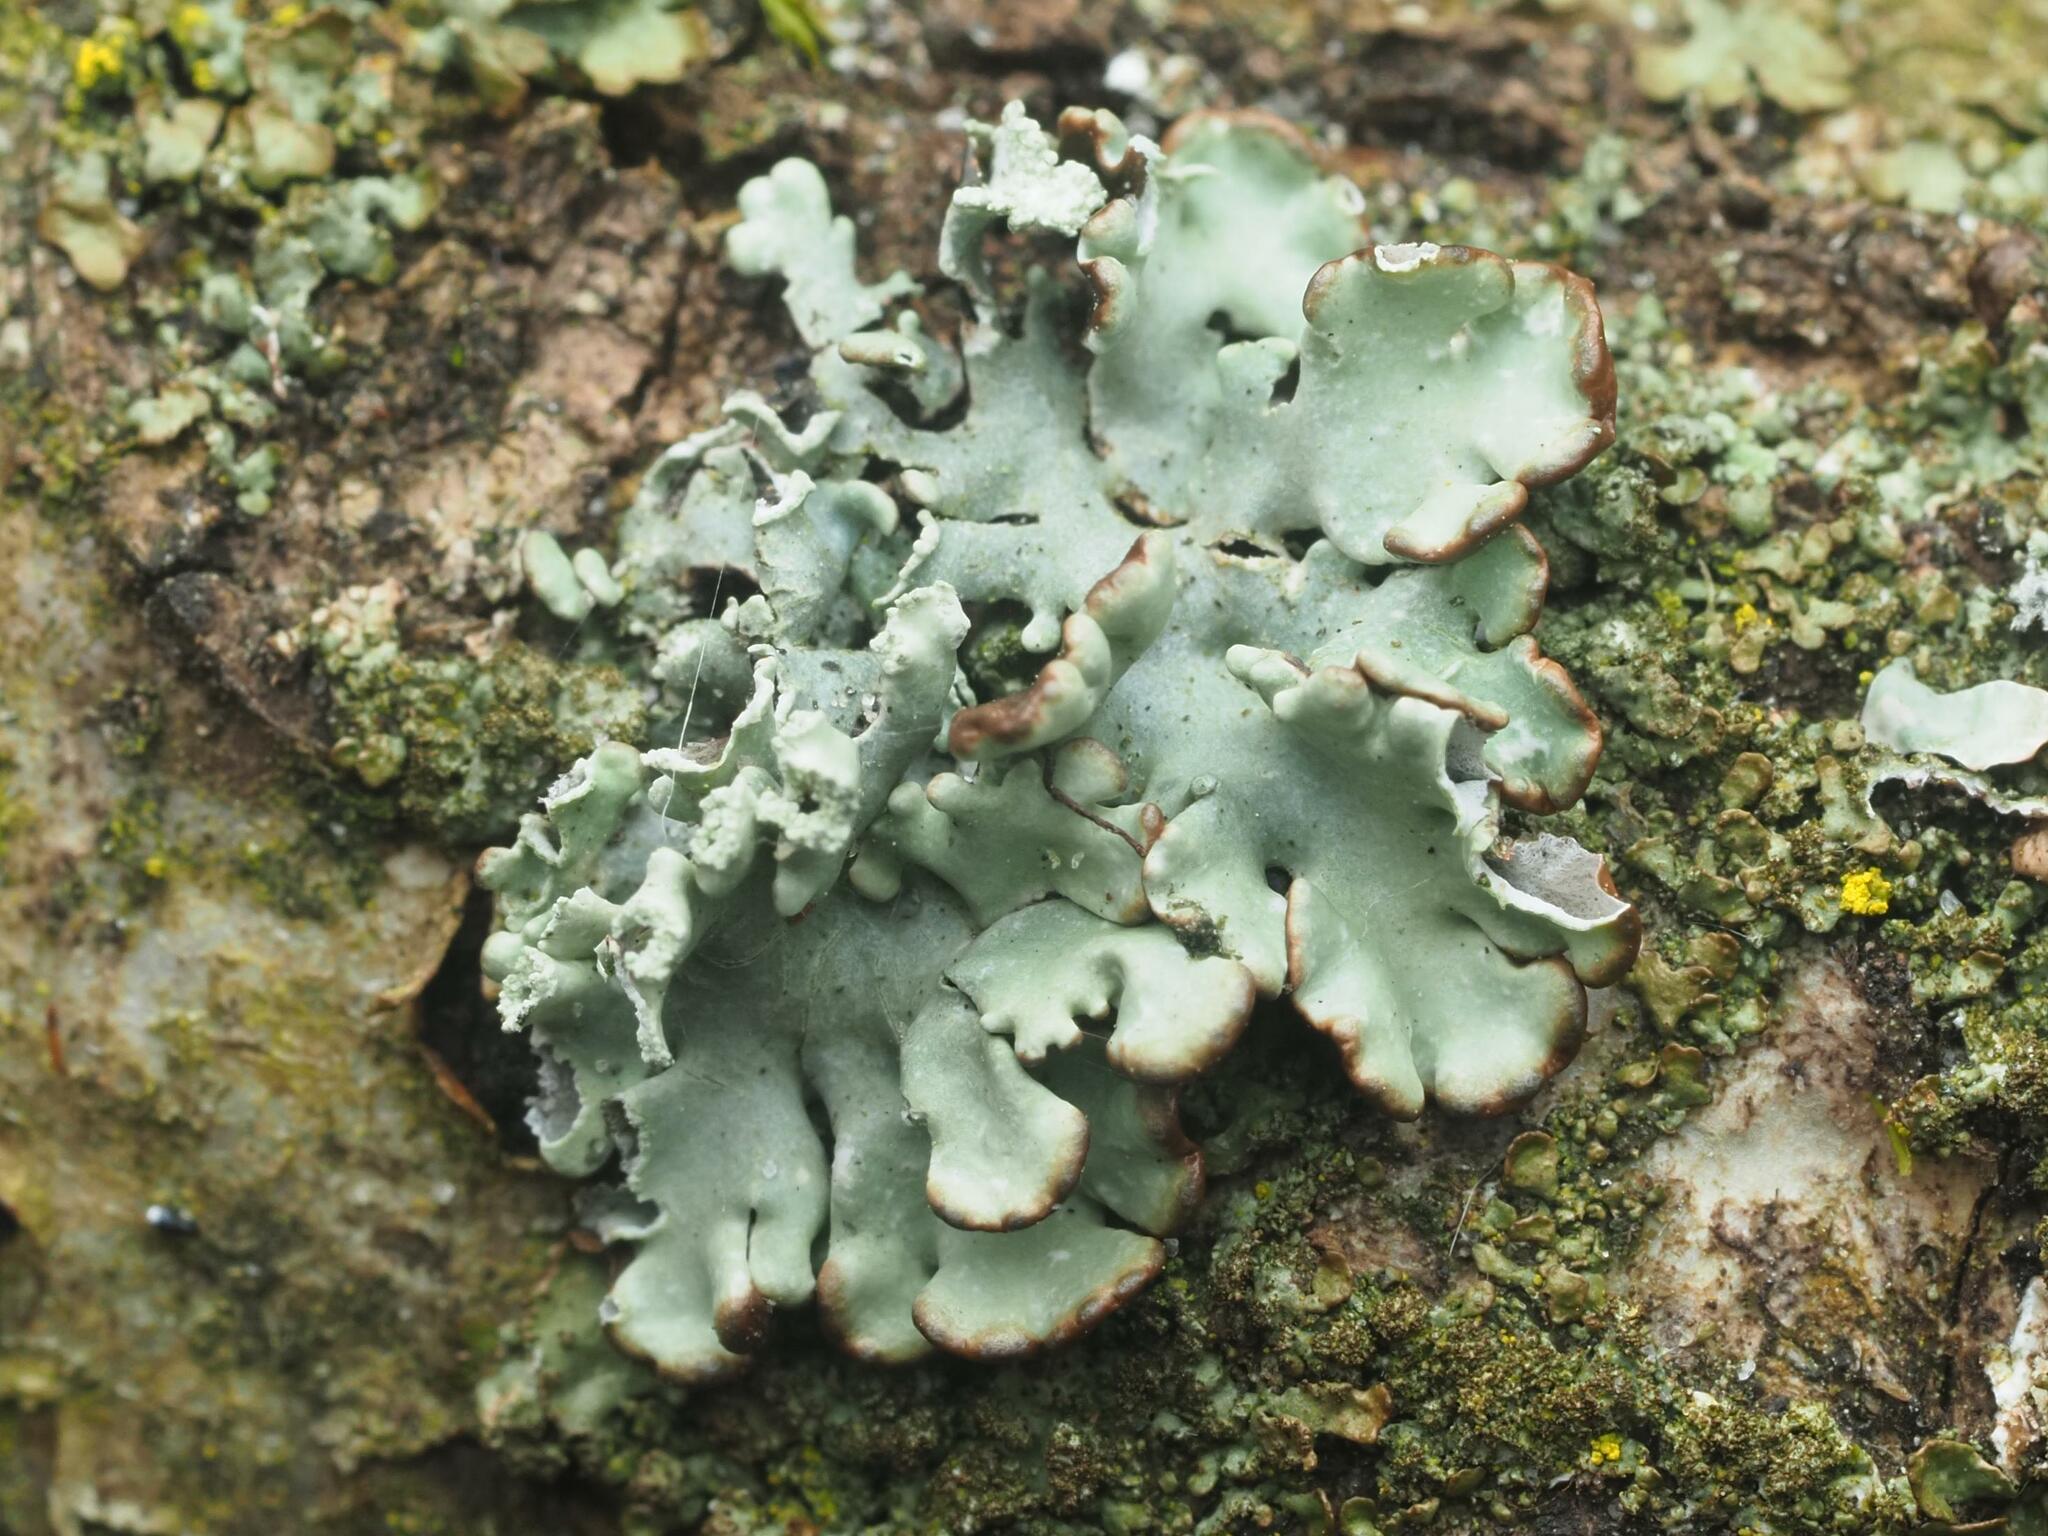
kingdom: Fungi
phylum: Ascomycota
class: Lecanoromycetes
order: Lecanorales
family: Parmeliaceae
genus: Hypogymnia
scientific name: Hypogymnia physodes
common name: Dark crottle
